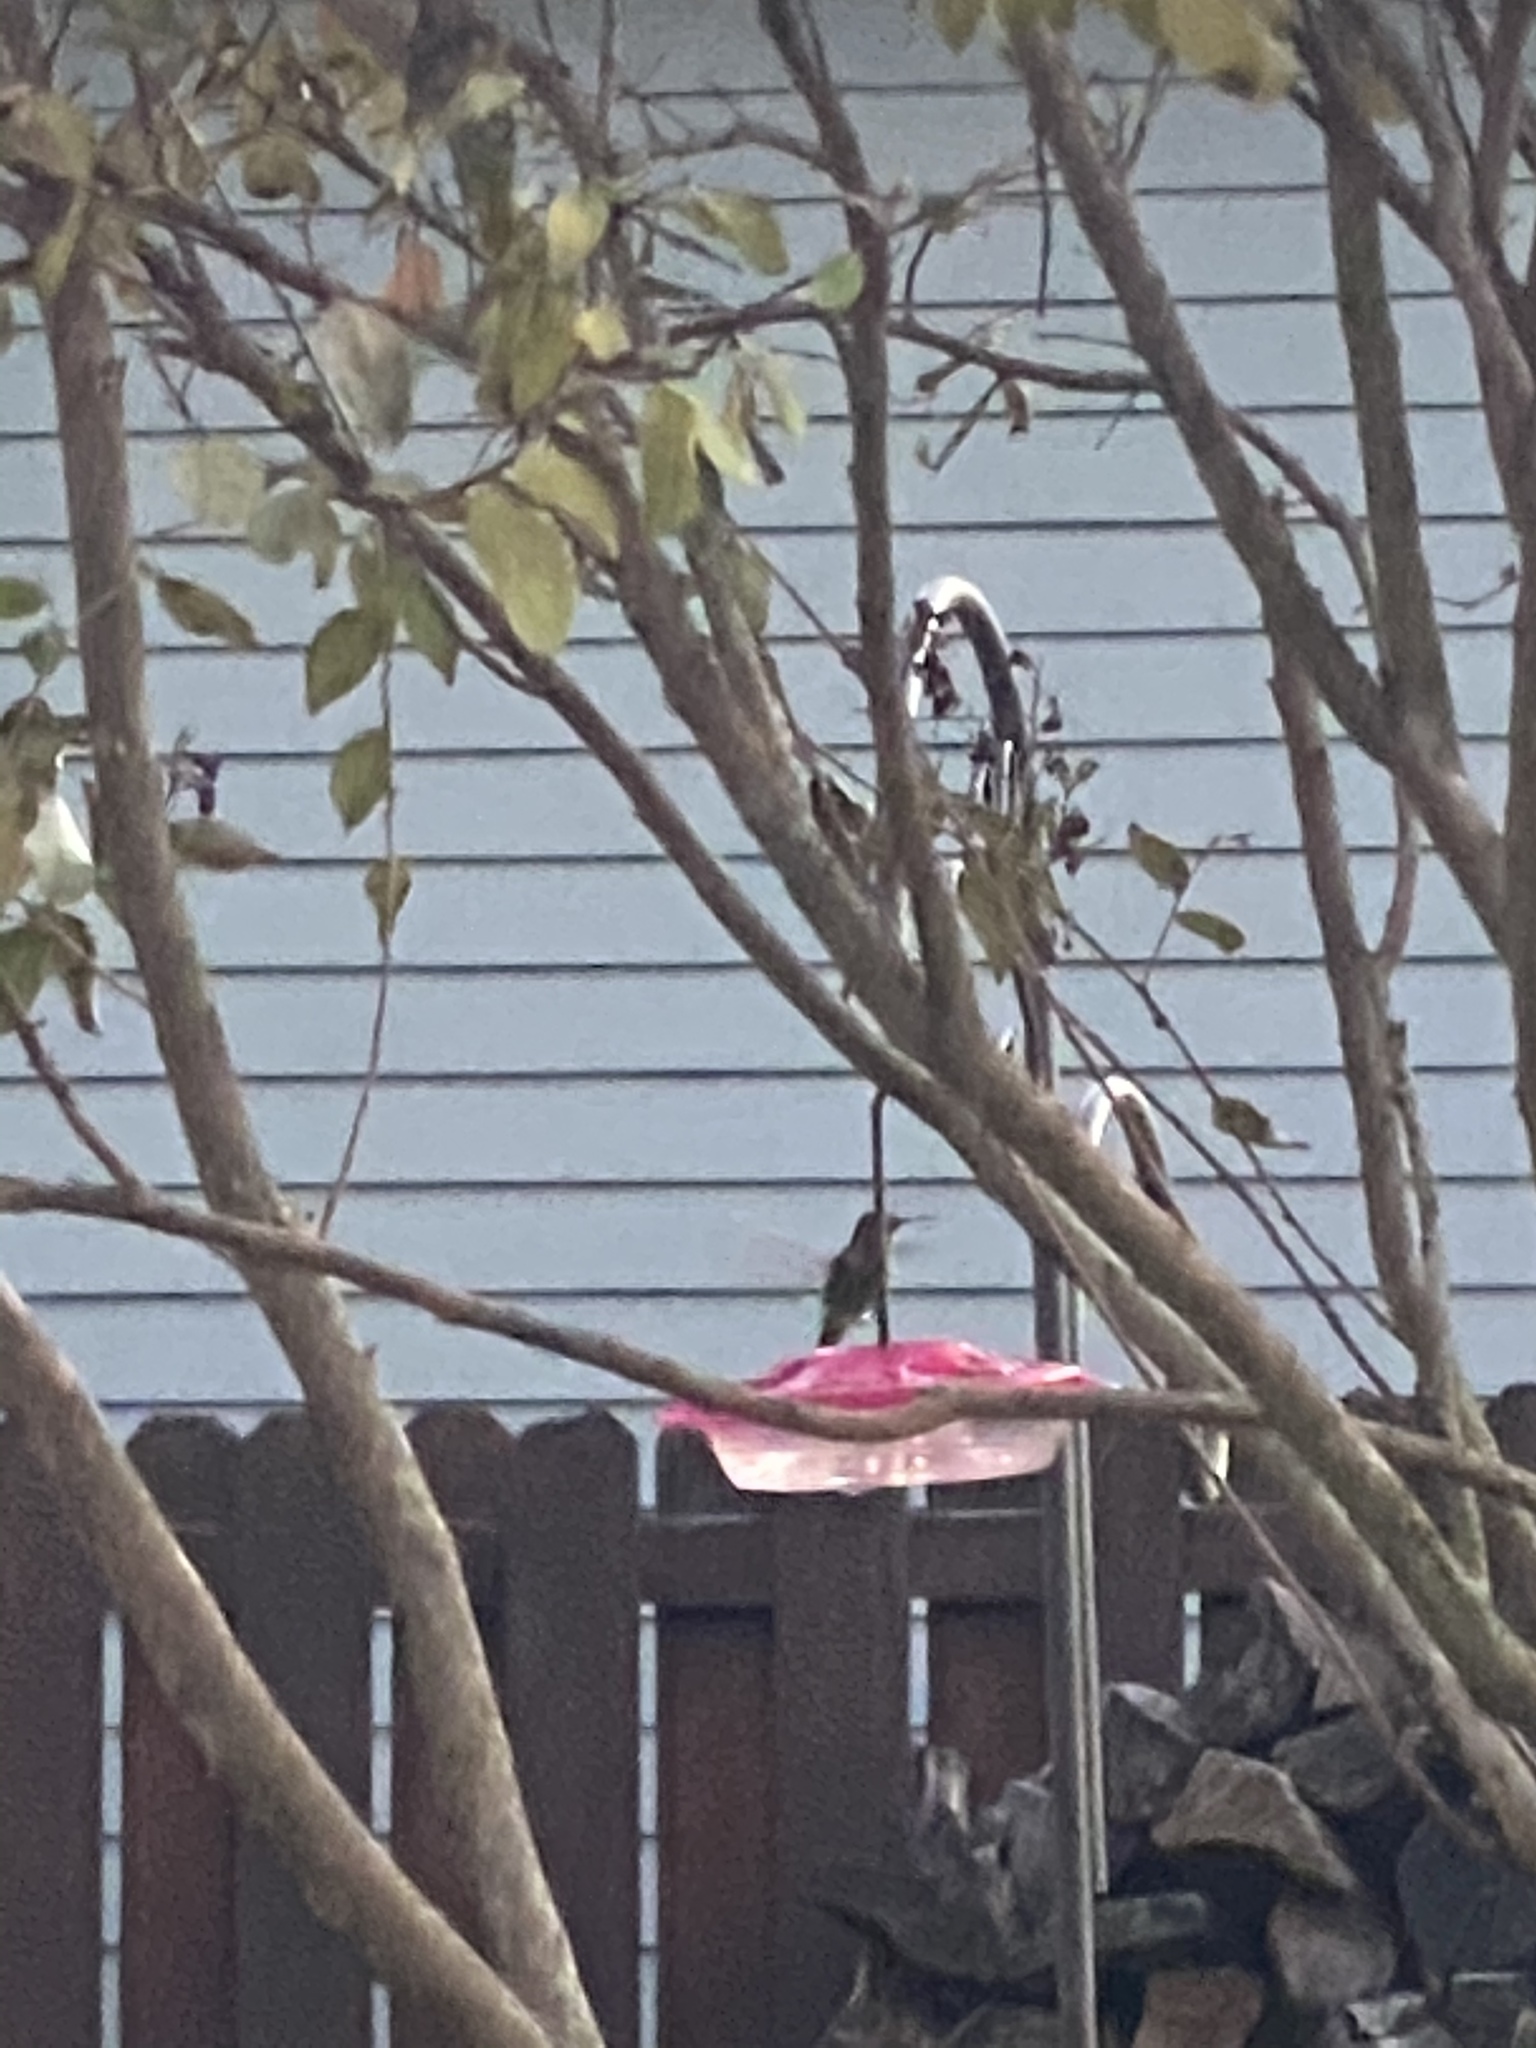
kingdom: Animalia
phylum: Chordata
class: Aves
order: Apodiformes
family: Trochilidae
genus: Calypte
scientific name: Calypte anna
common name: Anna's hummingbird
